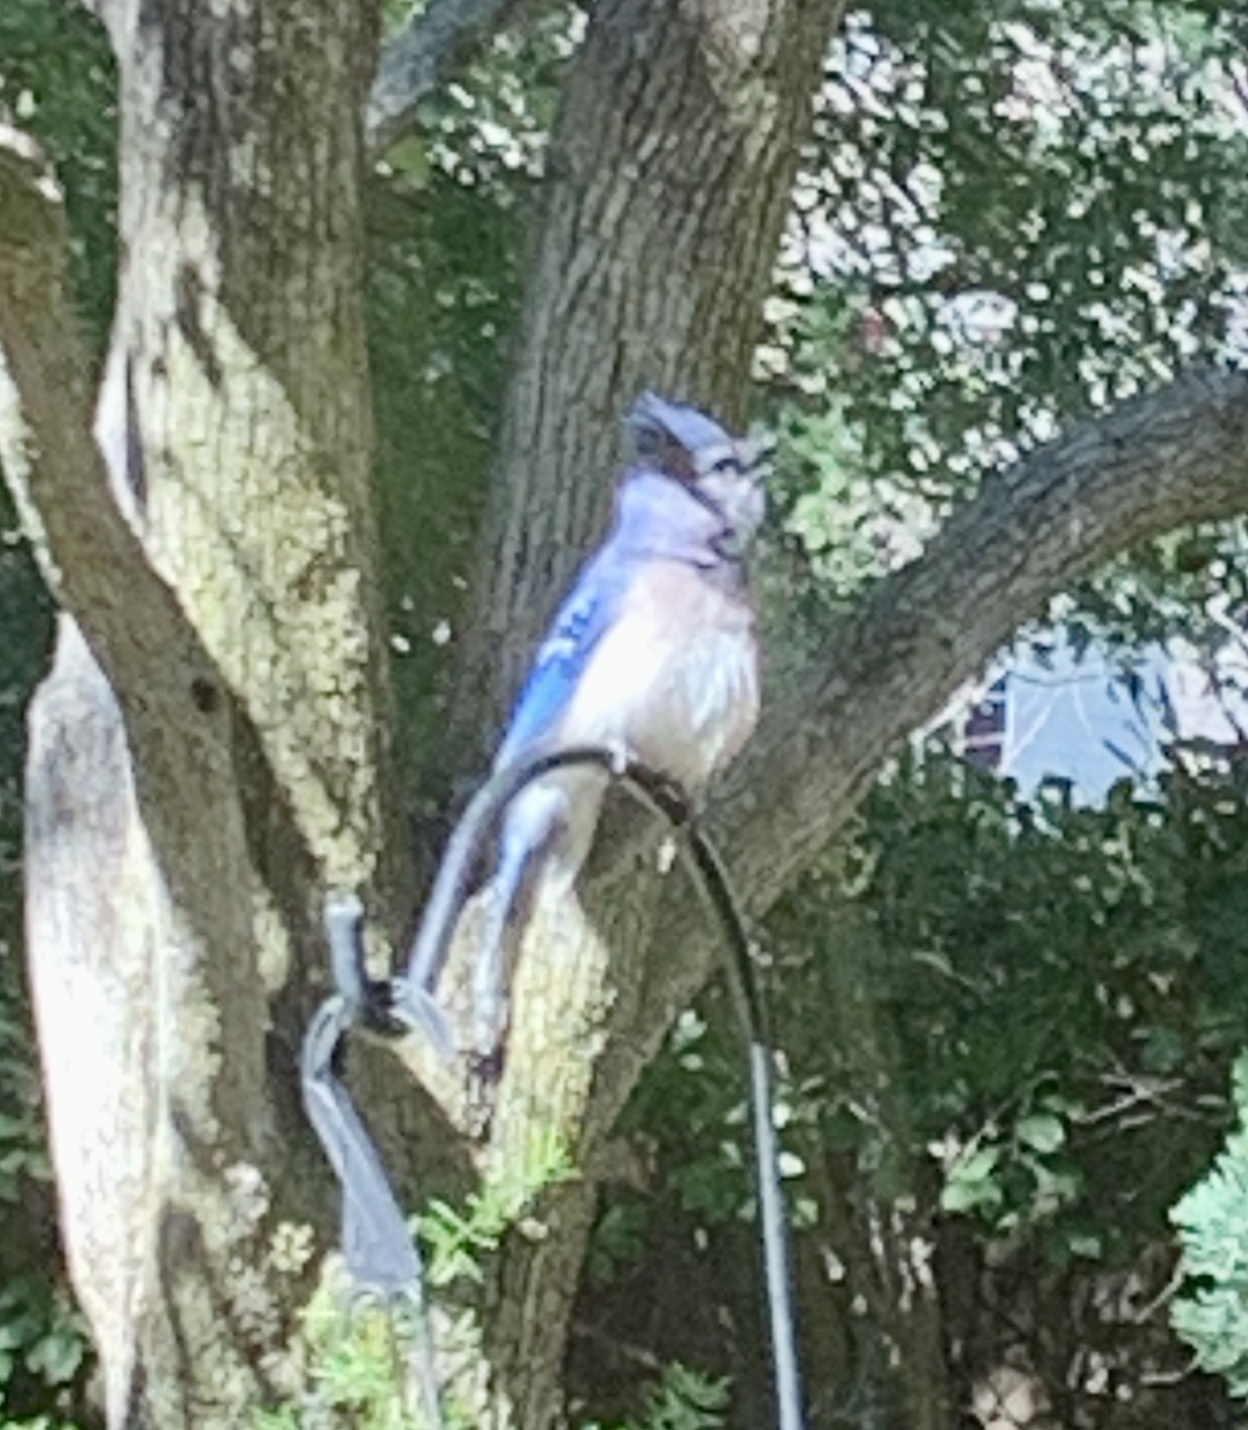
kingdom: Animalia
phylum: Chordata
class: Aves
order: Passeriformes
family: Corvidae
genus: Cyanocitta
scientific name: Cyanocitta cristata
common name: Blue jay
